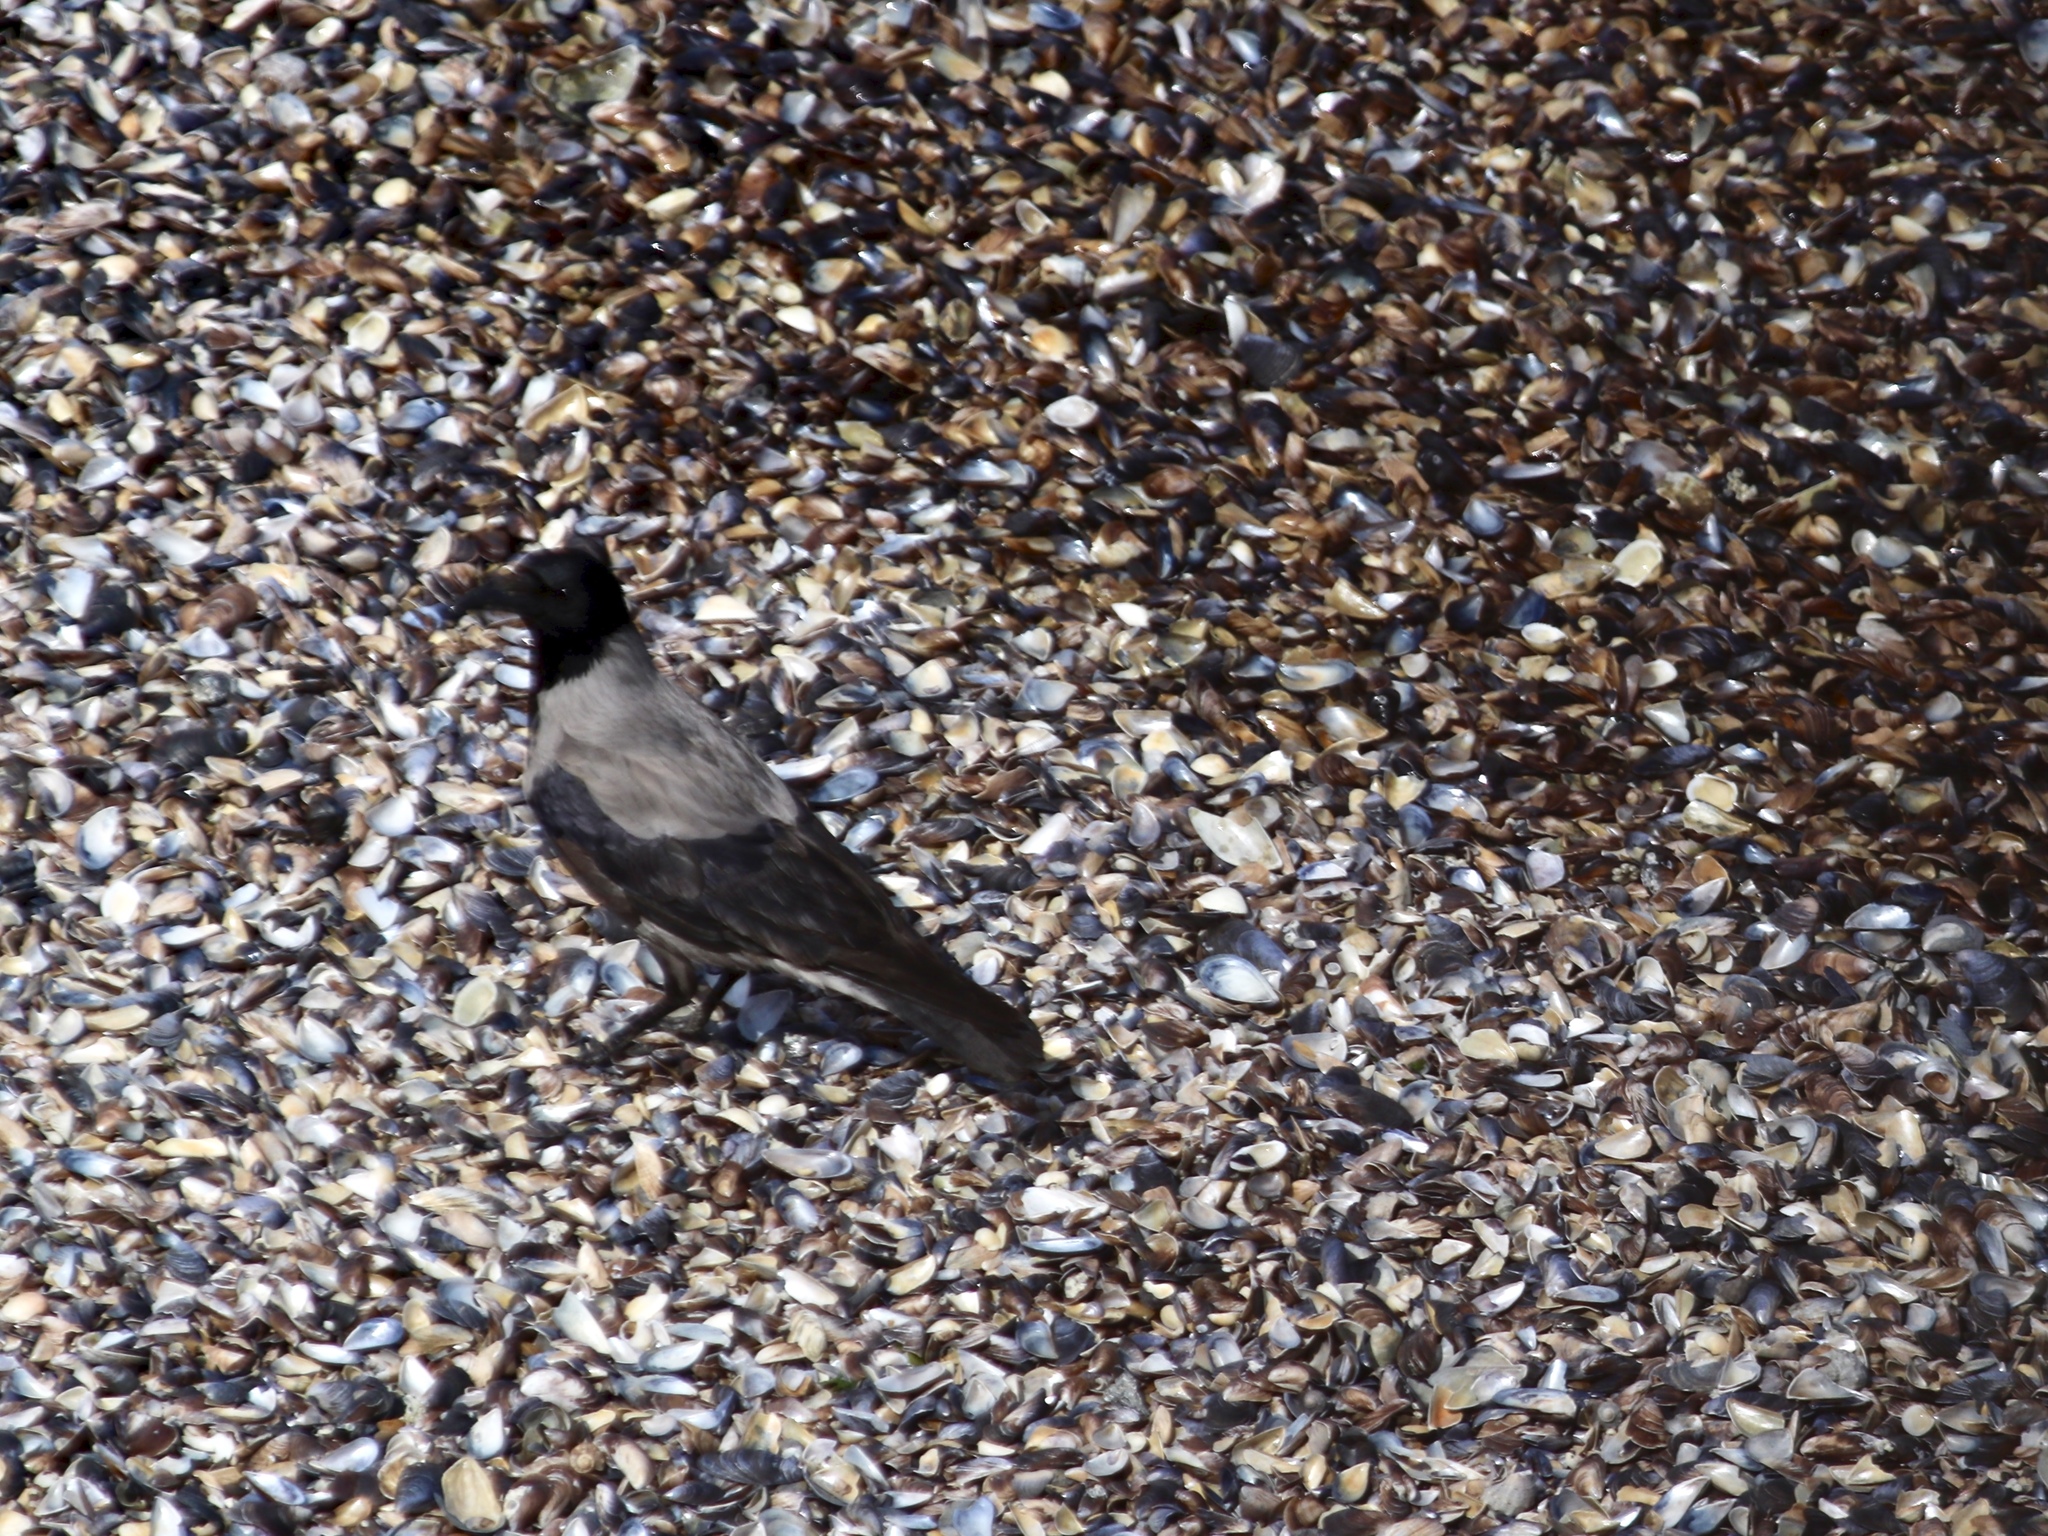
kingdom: Animalia
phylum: Chordata
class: Aves
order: Passeriformes
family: Corvidae
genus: Corvus
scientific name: Corvus cornix
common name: Hooded crow
